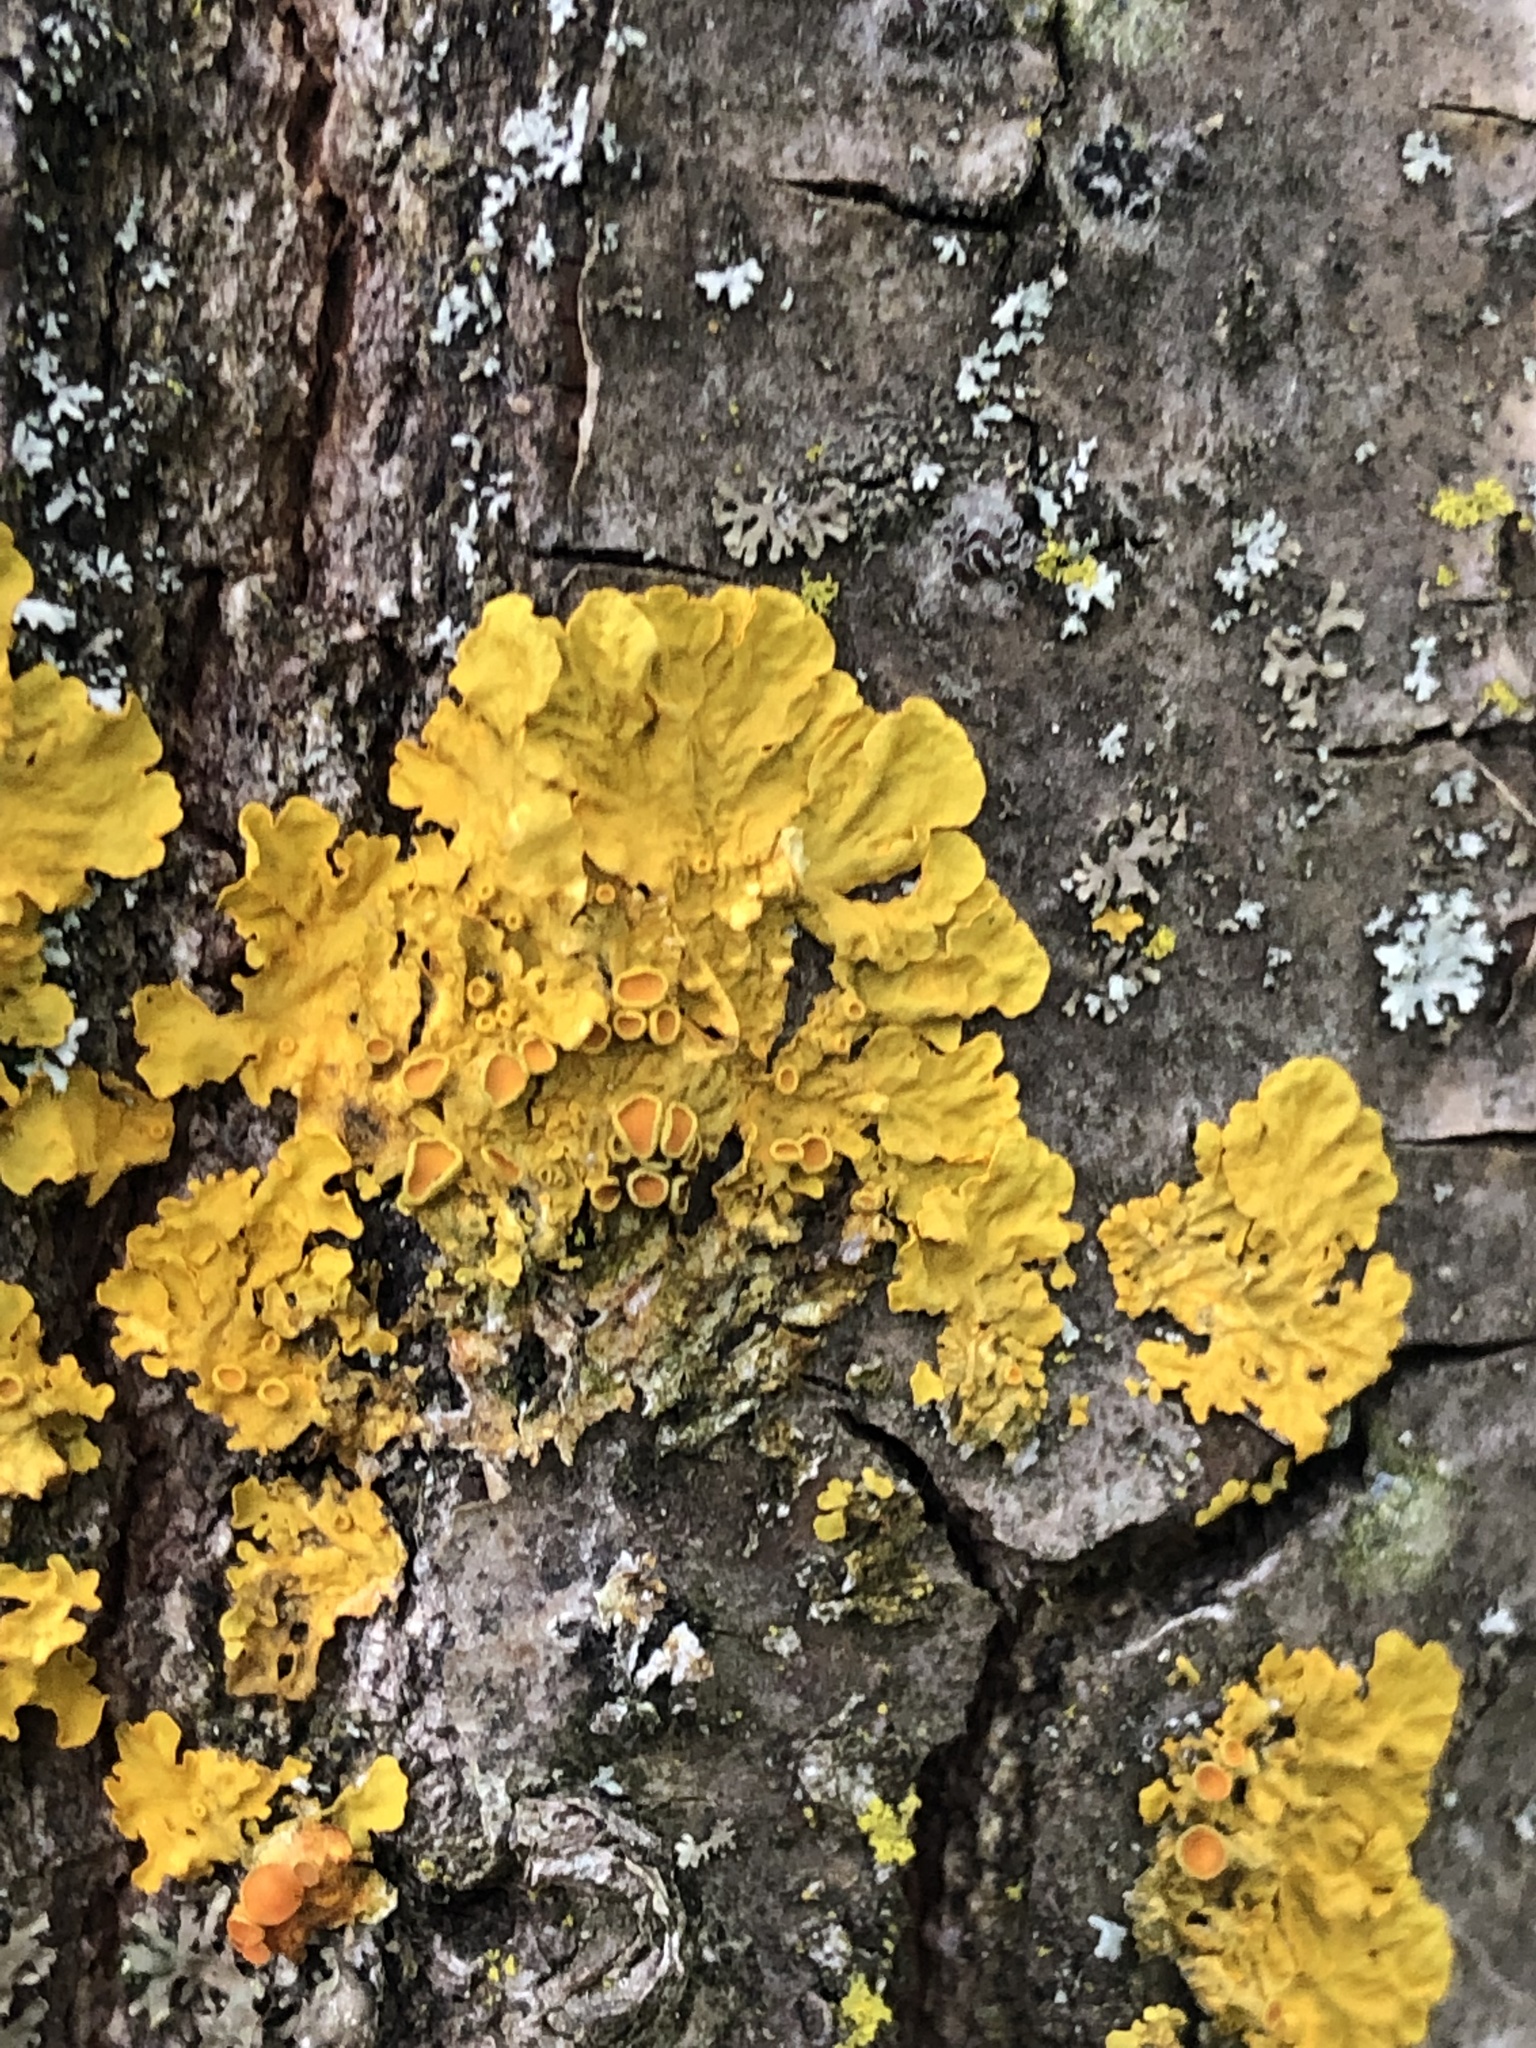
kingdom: Fungi
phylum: Ascomycota
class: Lecanoromycetes
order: Teloschistales
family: Teloschistaceae
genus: Xanthoria
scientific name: Xanthoria parietina
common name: Common orange lichen
